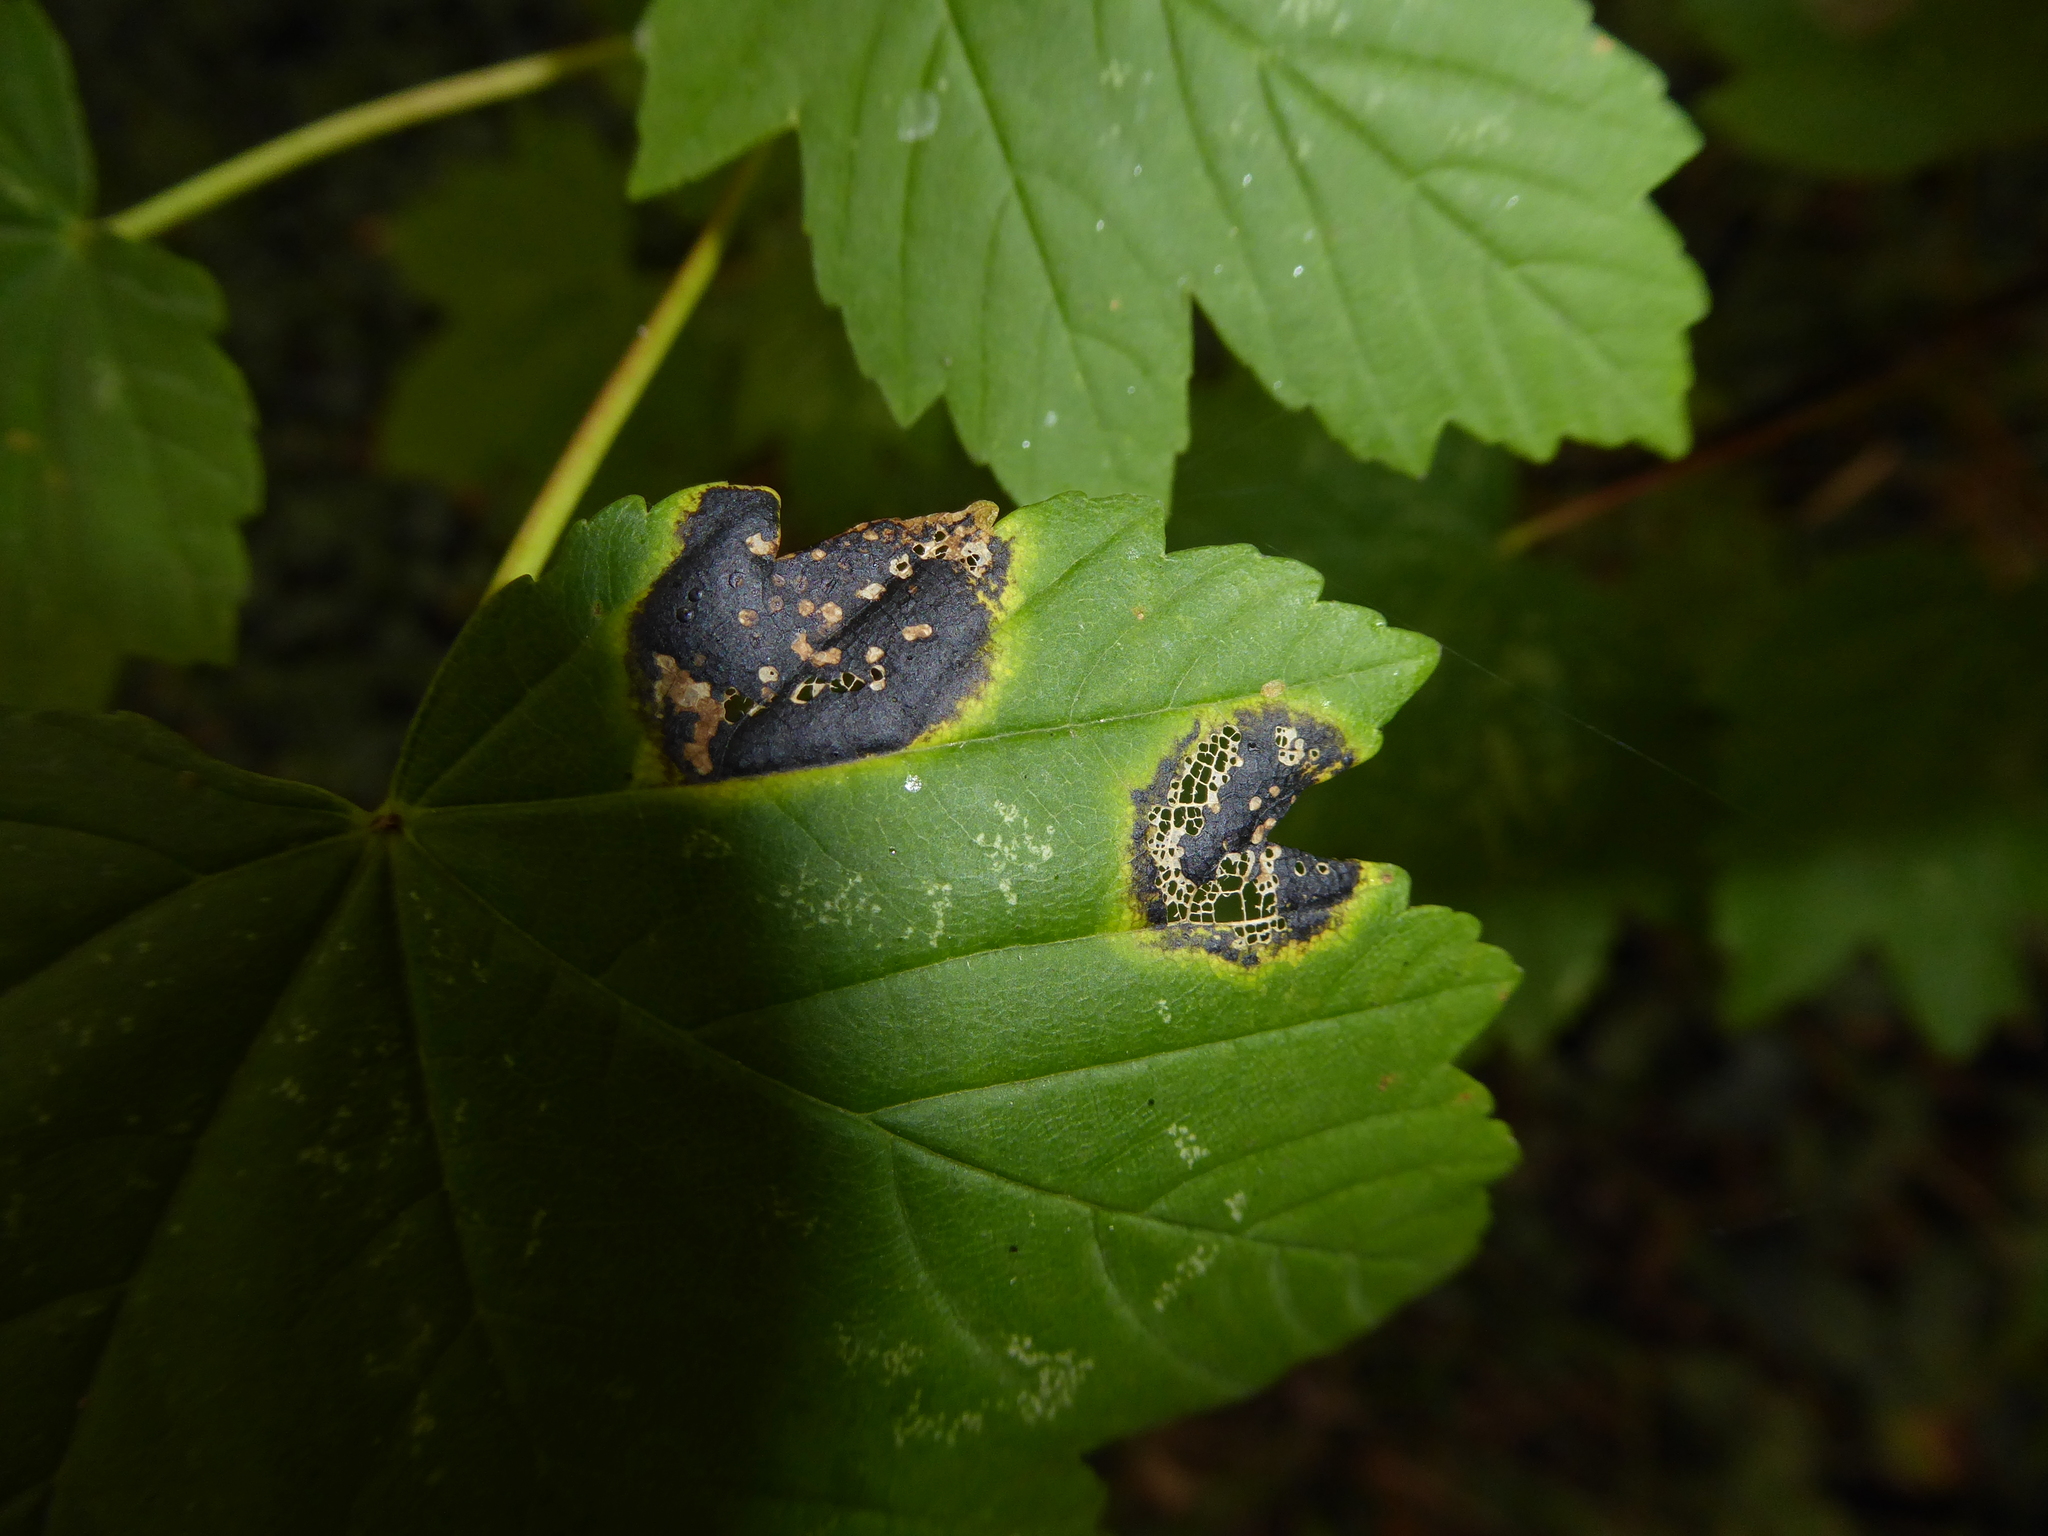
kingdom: Fungi
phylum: Ascomycota
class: Leotiomycetes
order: Rhytismatales
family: Rhytismataceae
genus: Rhytisma
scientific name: Rhytisma acerinum
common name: European tar spot
